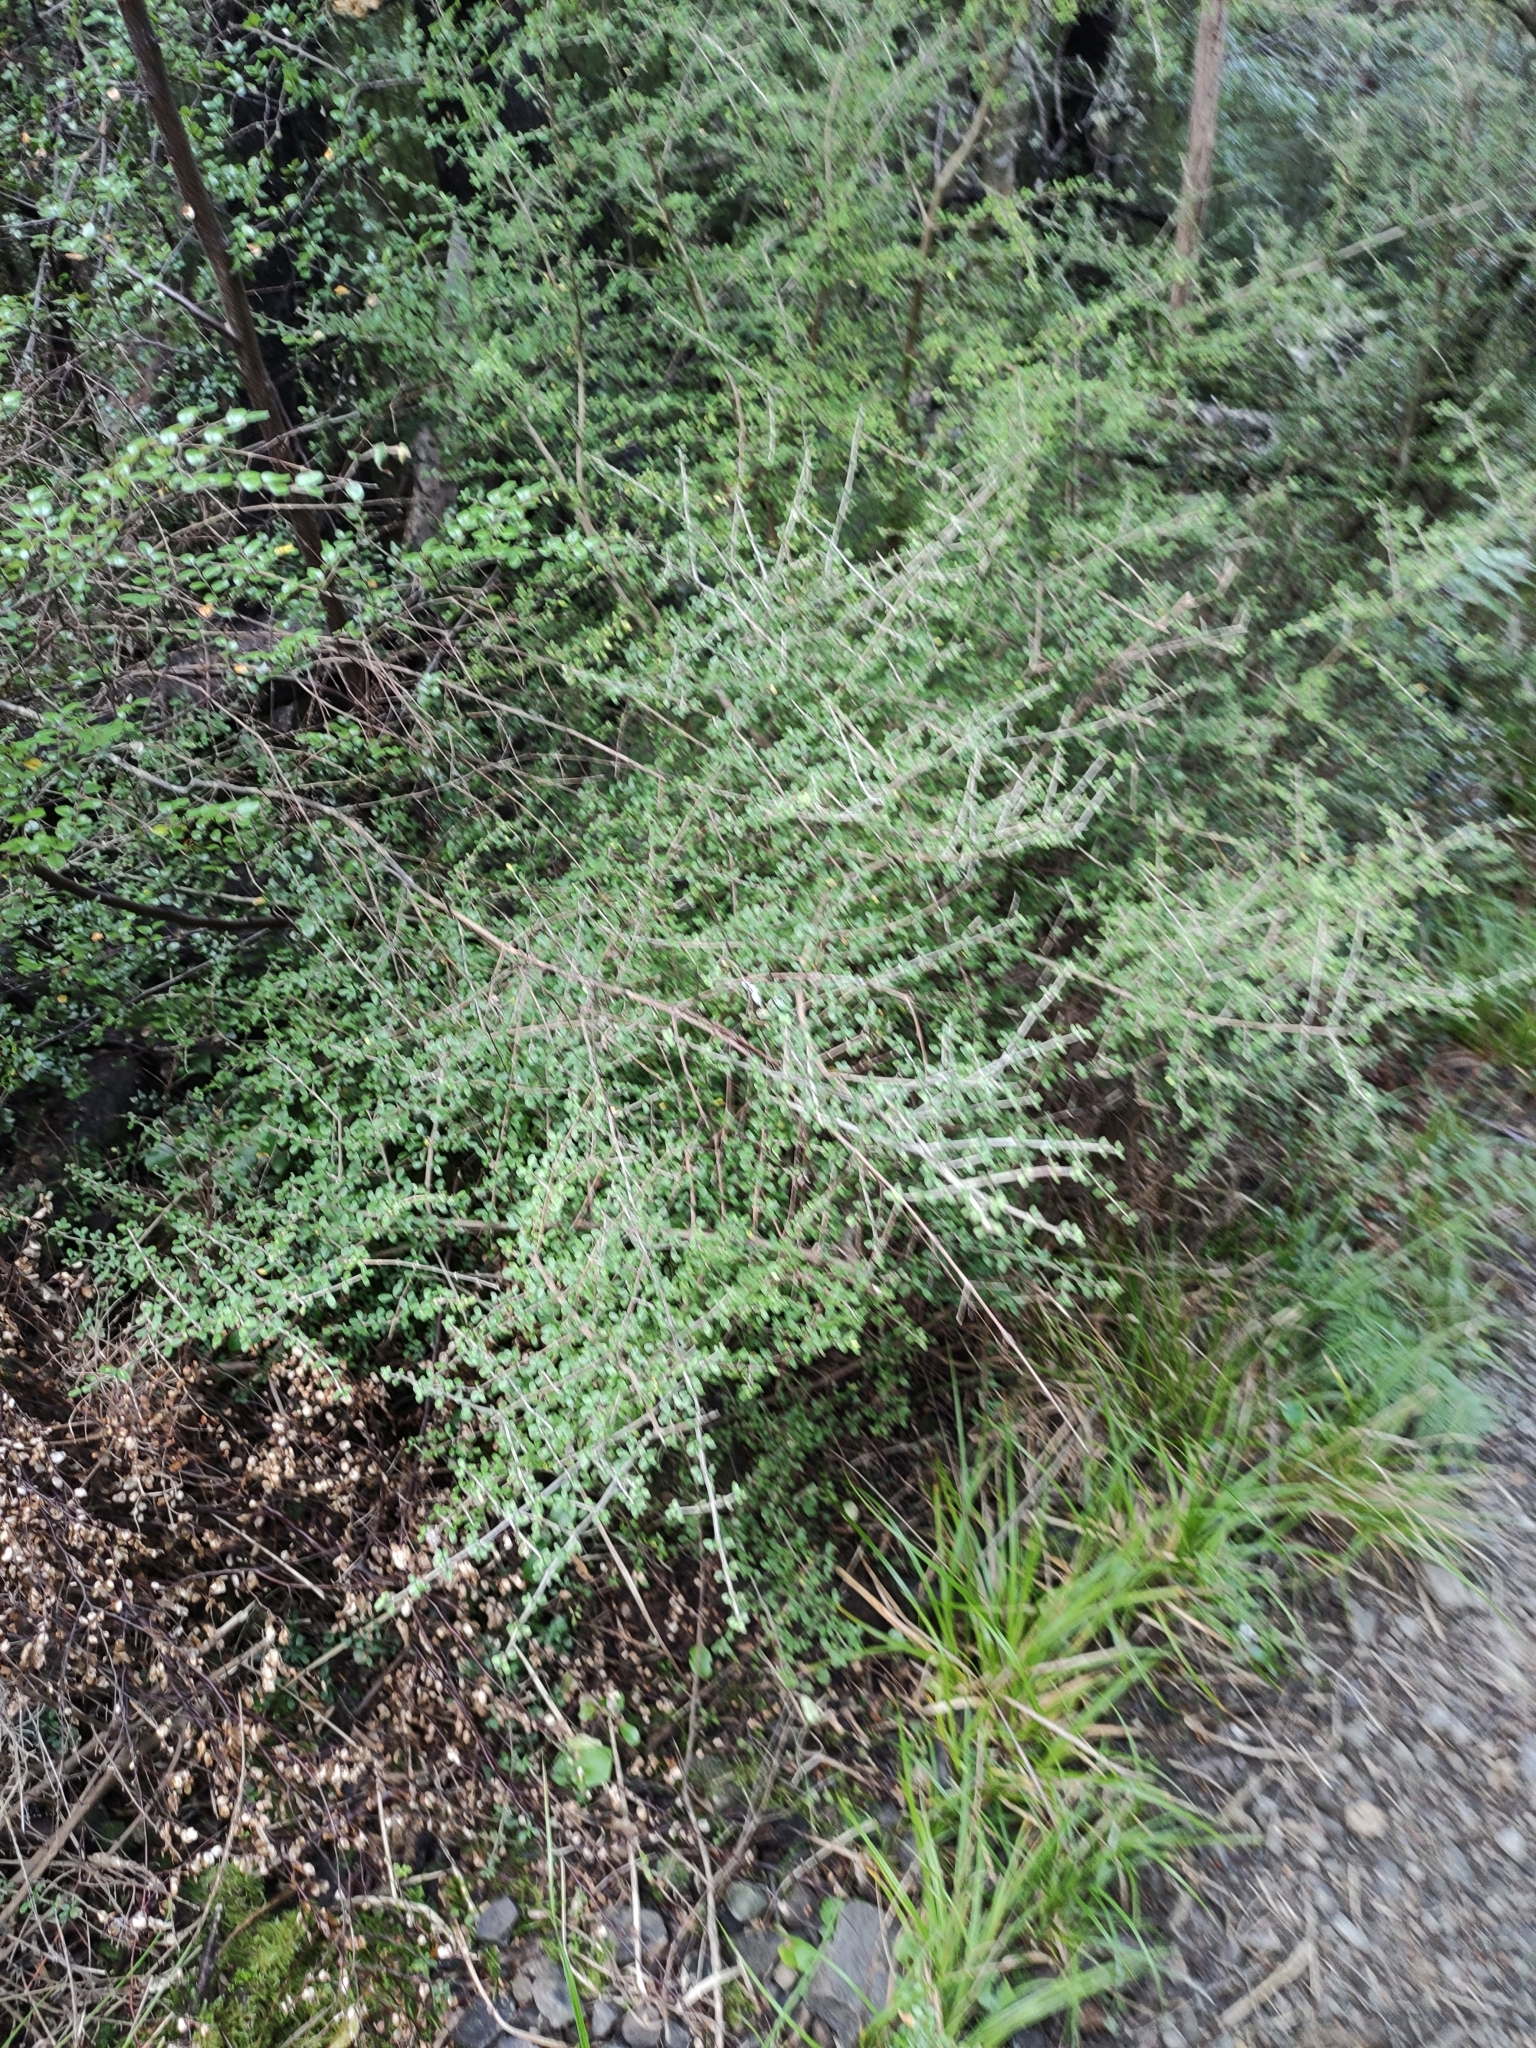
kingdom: Plantae
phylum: Tracheophyta
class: Magnoliopsida
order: Gentianales
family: Rubiaceae
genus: Coprosma
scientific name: Coprosma dumosa
